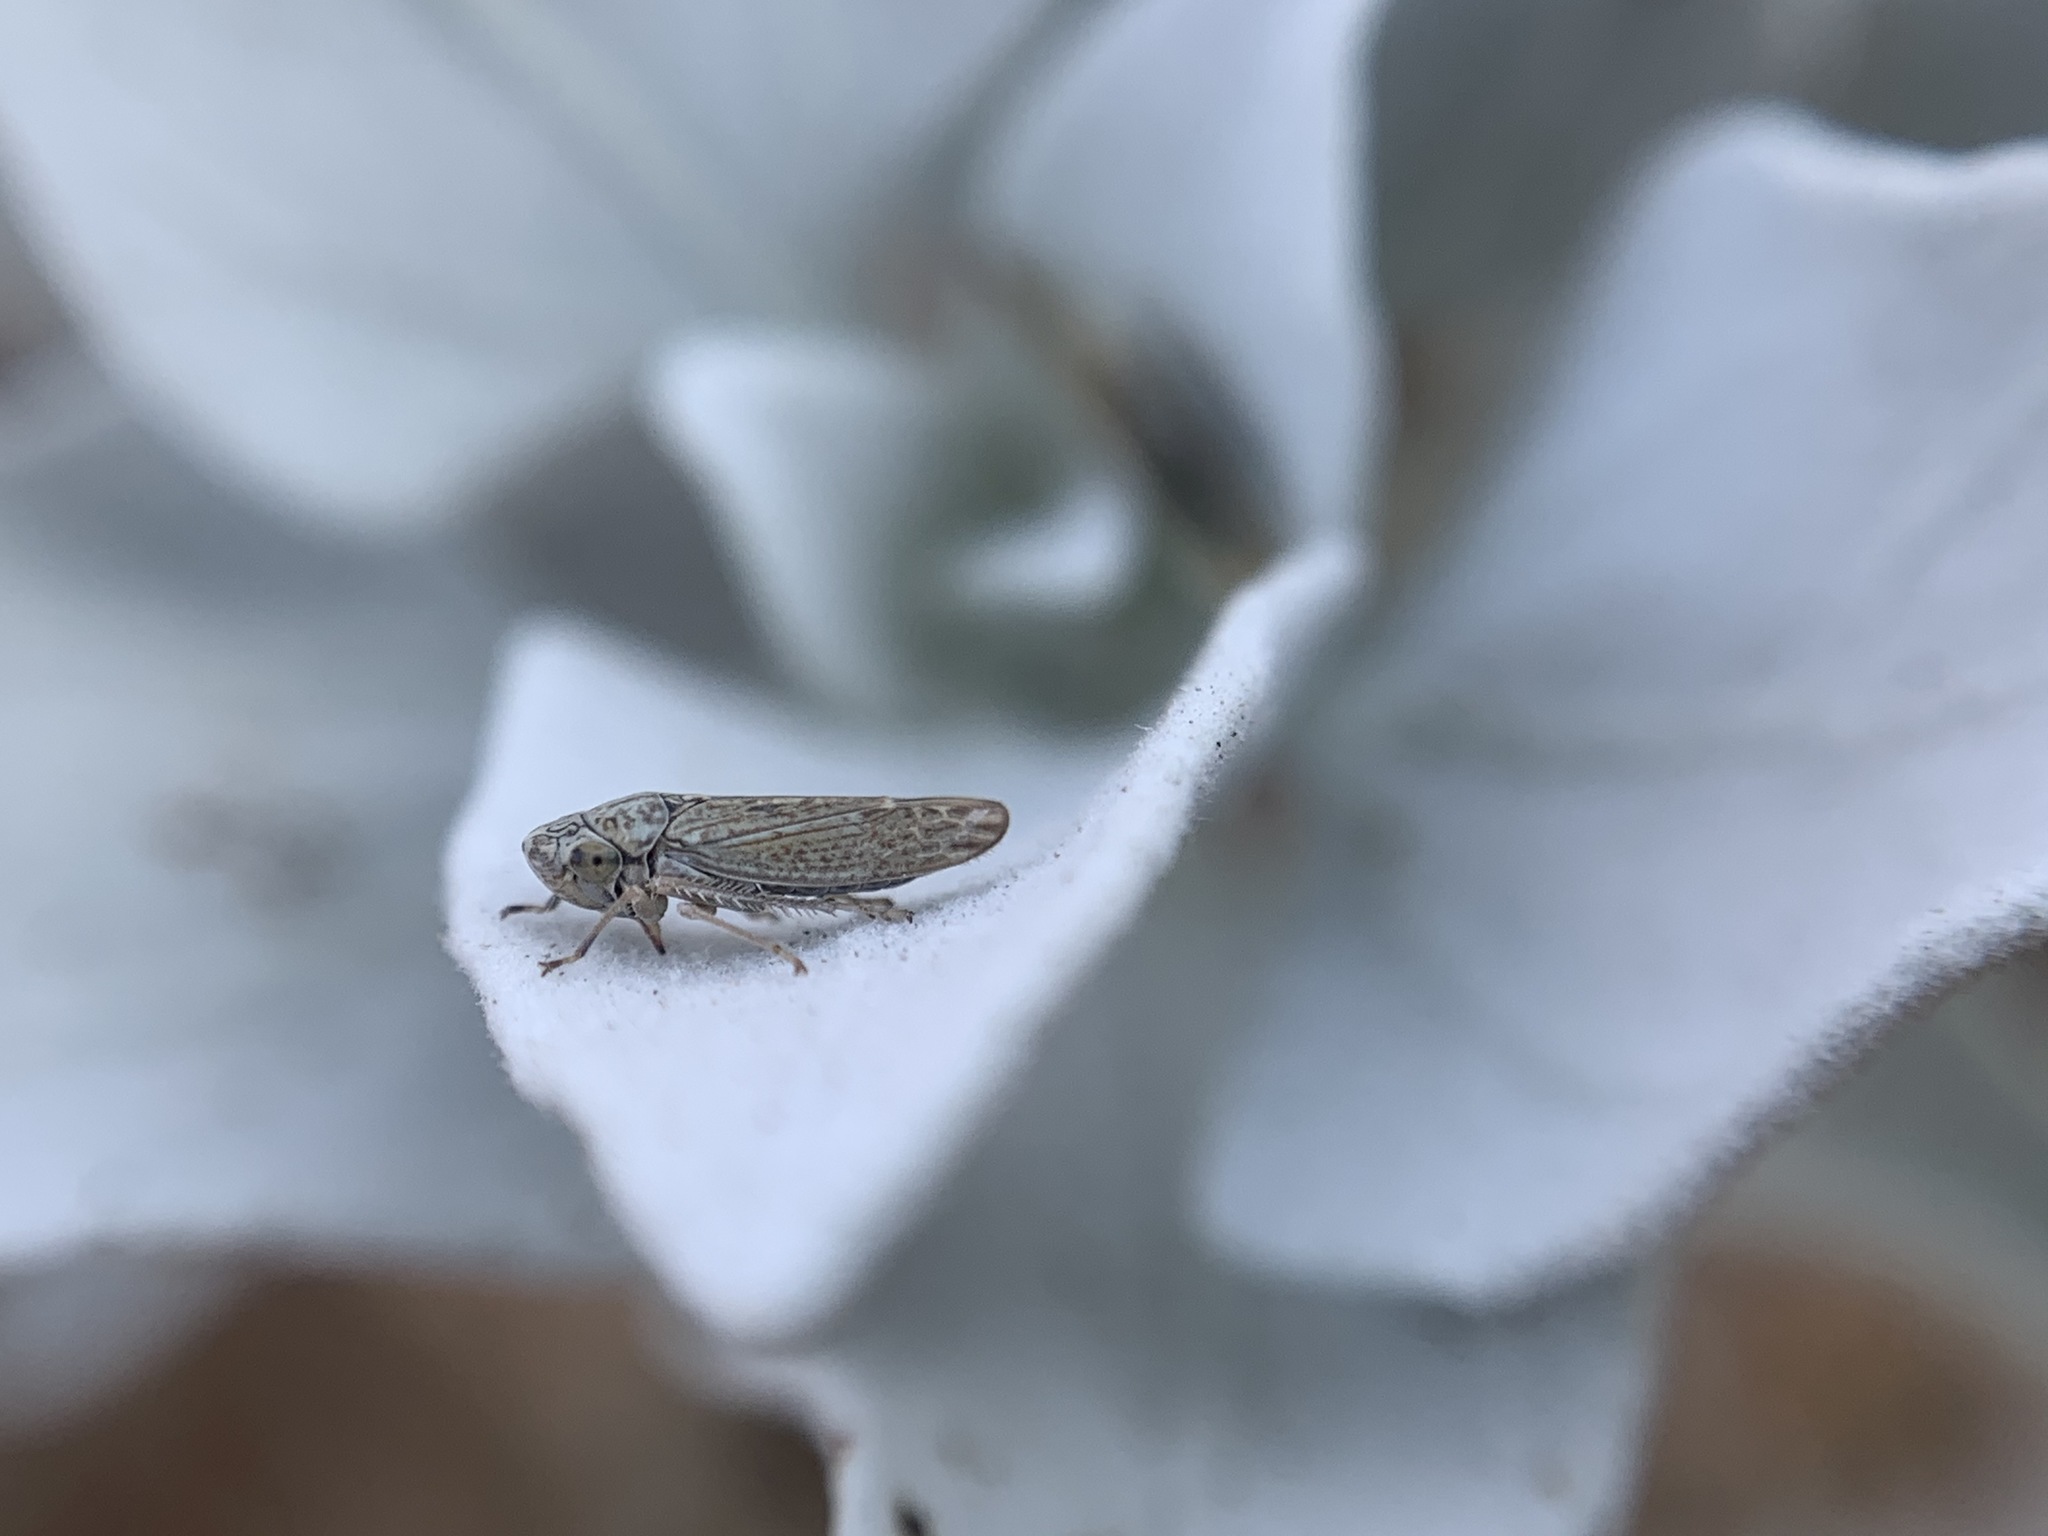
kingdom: Animalia
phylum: Arthropoda
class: Insecta
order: Hemiptera
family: Cicadellidae
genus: Neokolla
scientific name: Neokolla bispinosa
